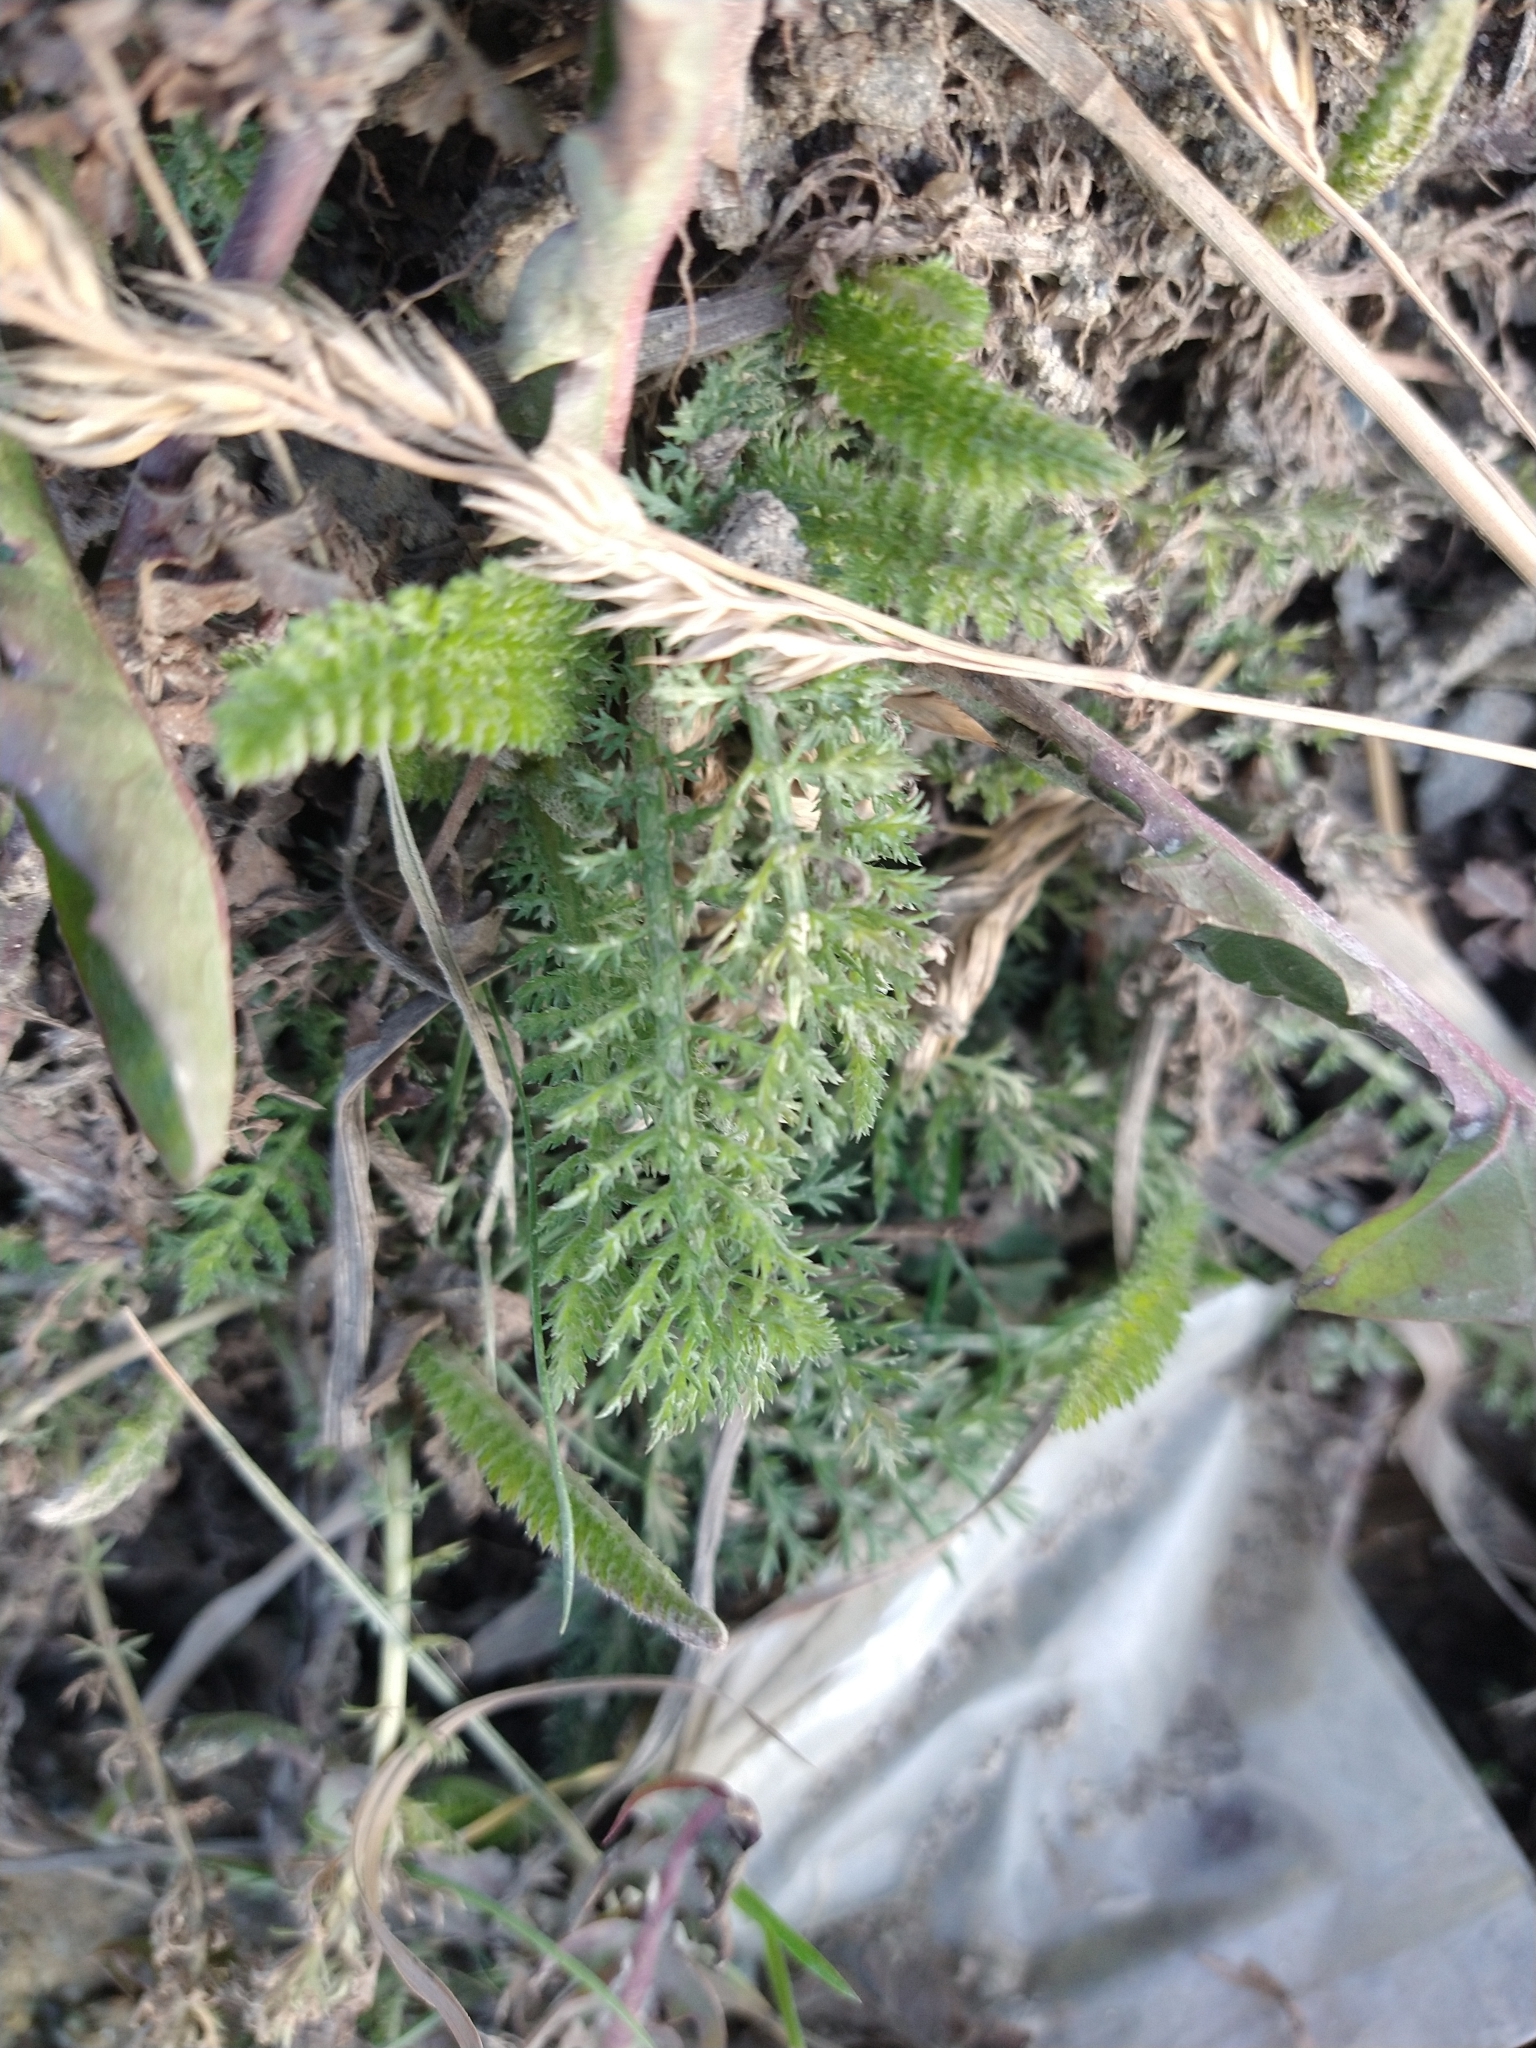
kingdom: Plantae
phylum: Tracheophyta
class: Magnoliopsida
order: Asterales
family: Asteraceae
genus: Achillea
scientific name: Achillea millefolium
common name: Yarrow
